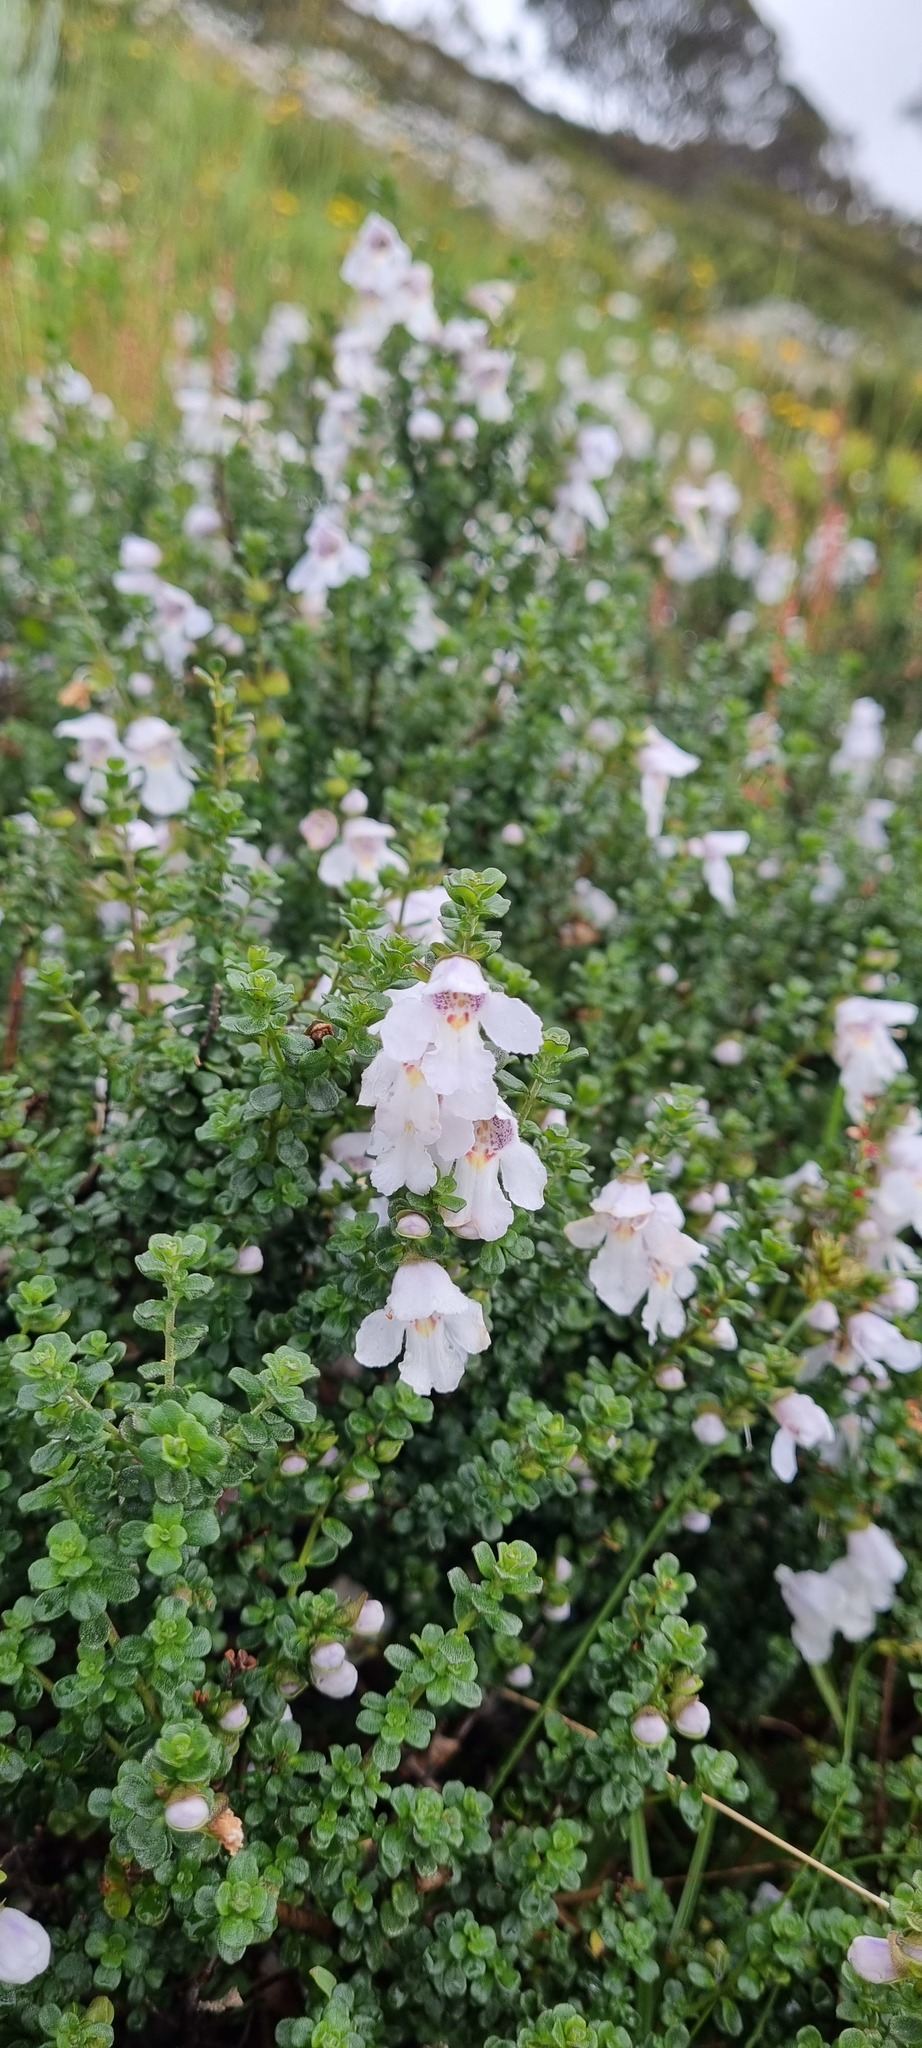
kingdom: Plantae
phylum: Tracheophyta
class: Magnoliopsida
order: Lamiales
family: Lamiaceae
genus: Prostanthera
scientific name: Prostanthera cuneata
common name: Alpine mintbush
